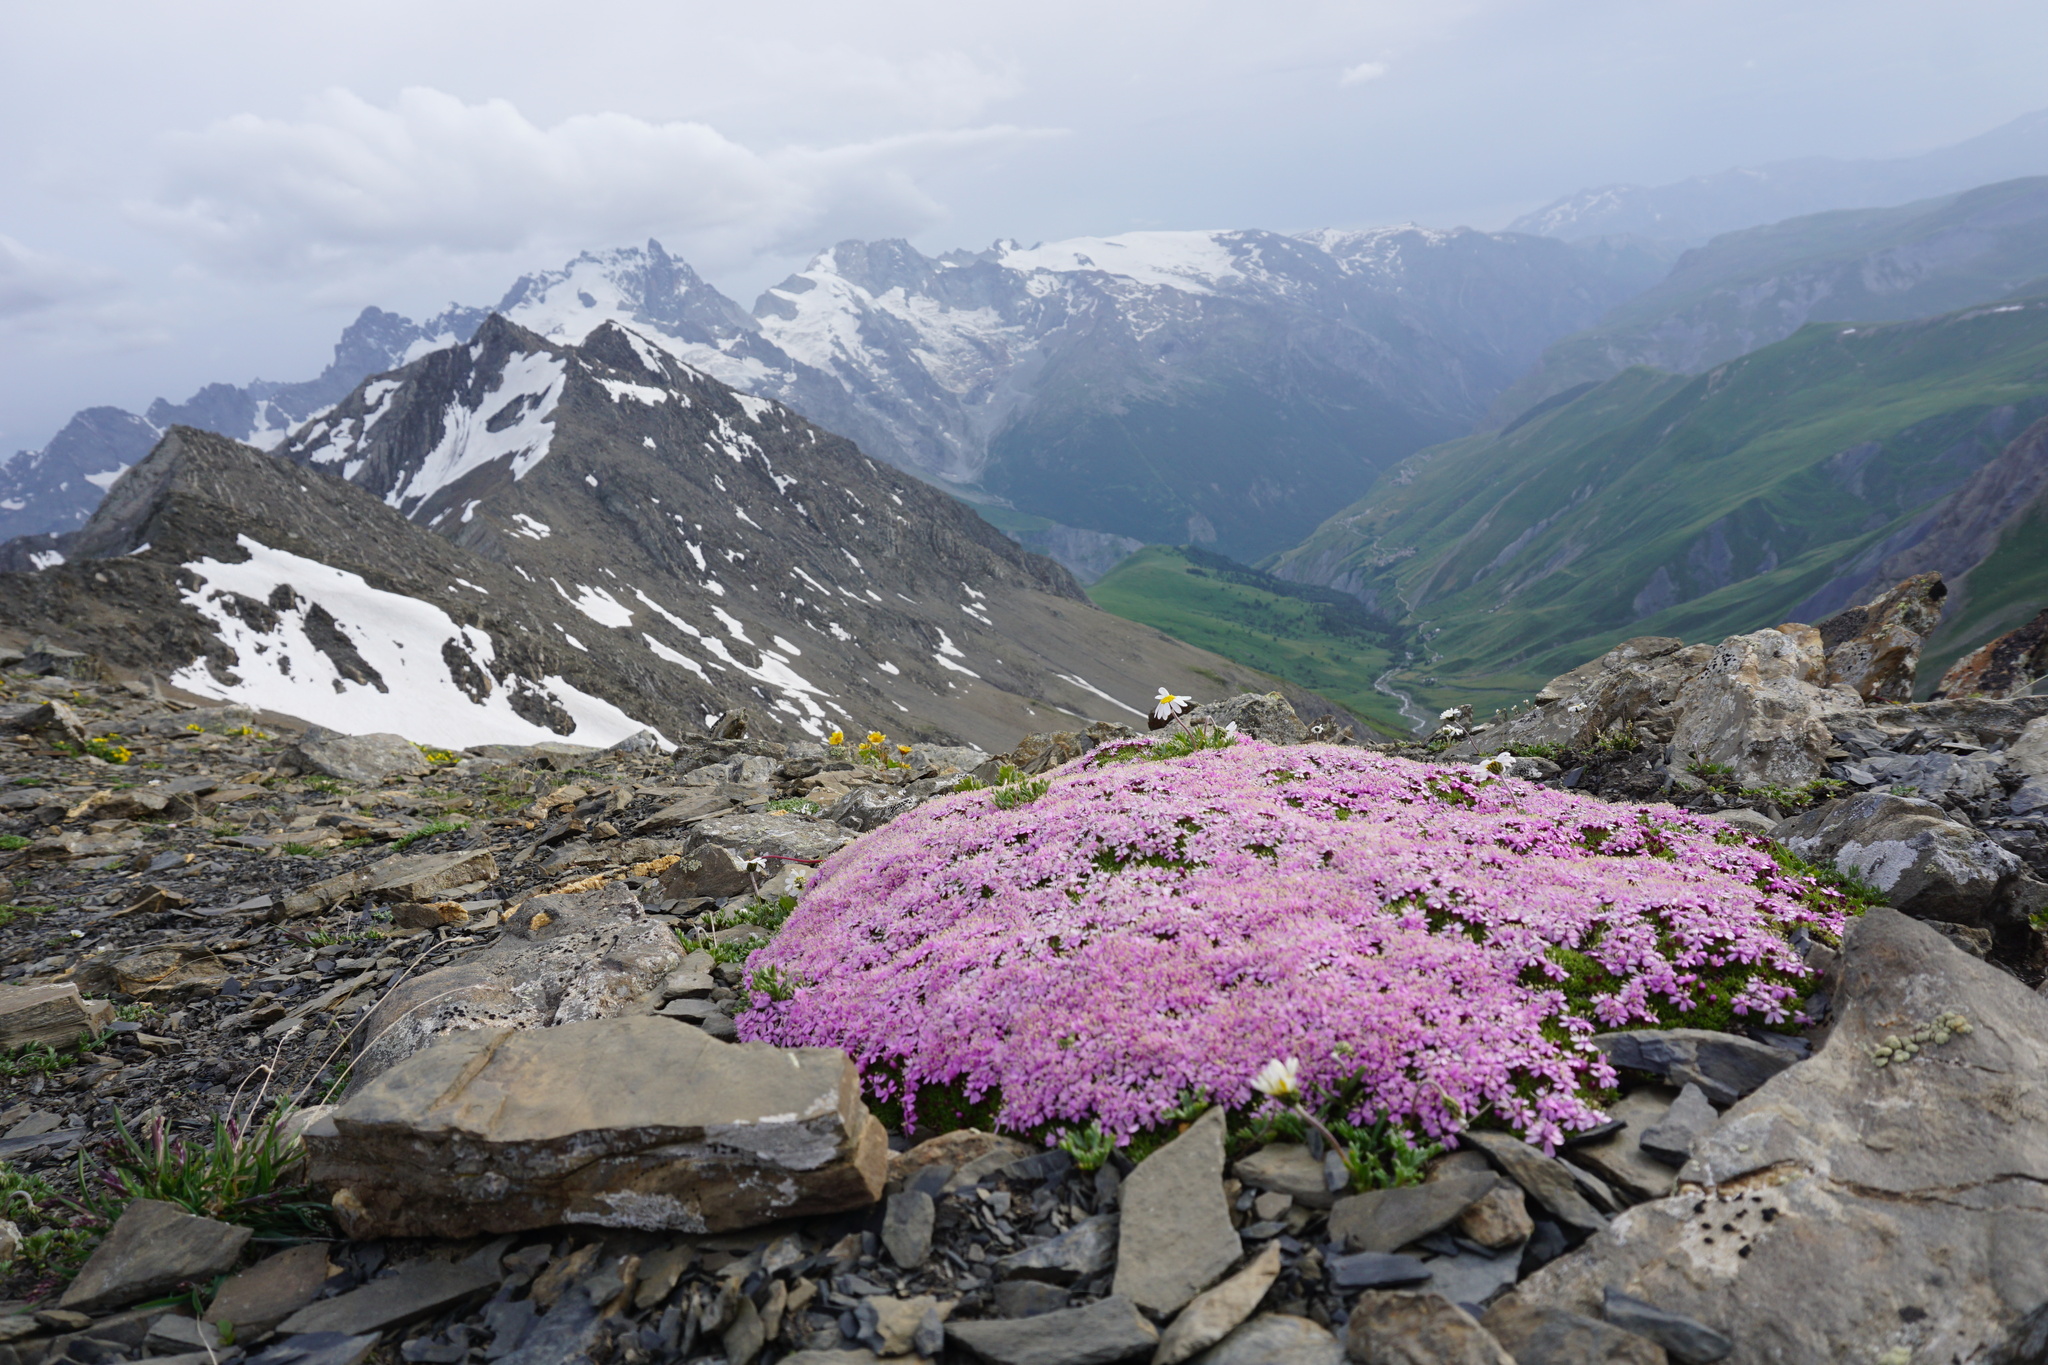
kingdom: Plantae
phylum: Tracheophyta
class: Magnoliopsida
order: Caryophyllales
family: Caryophyllaceae
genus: Silene
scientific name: Silene acaulis
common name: Moss campion
